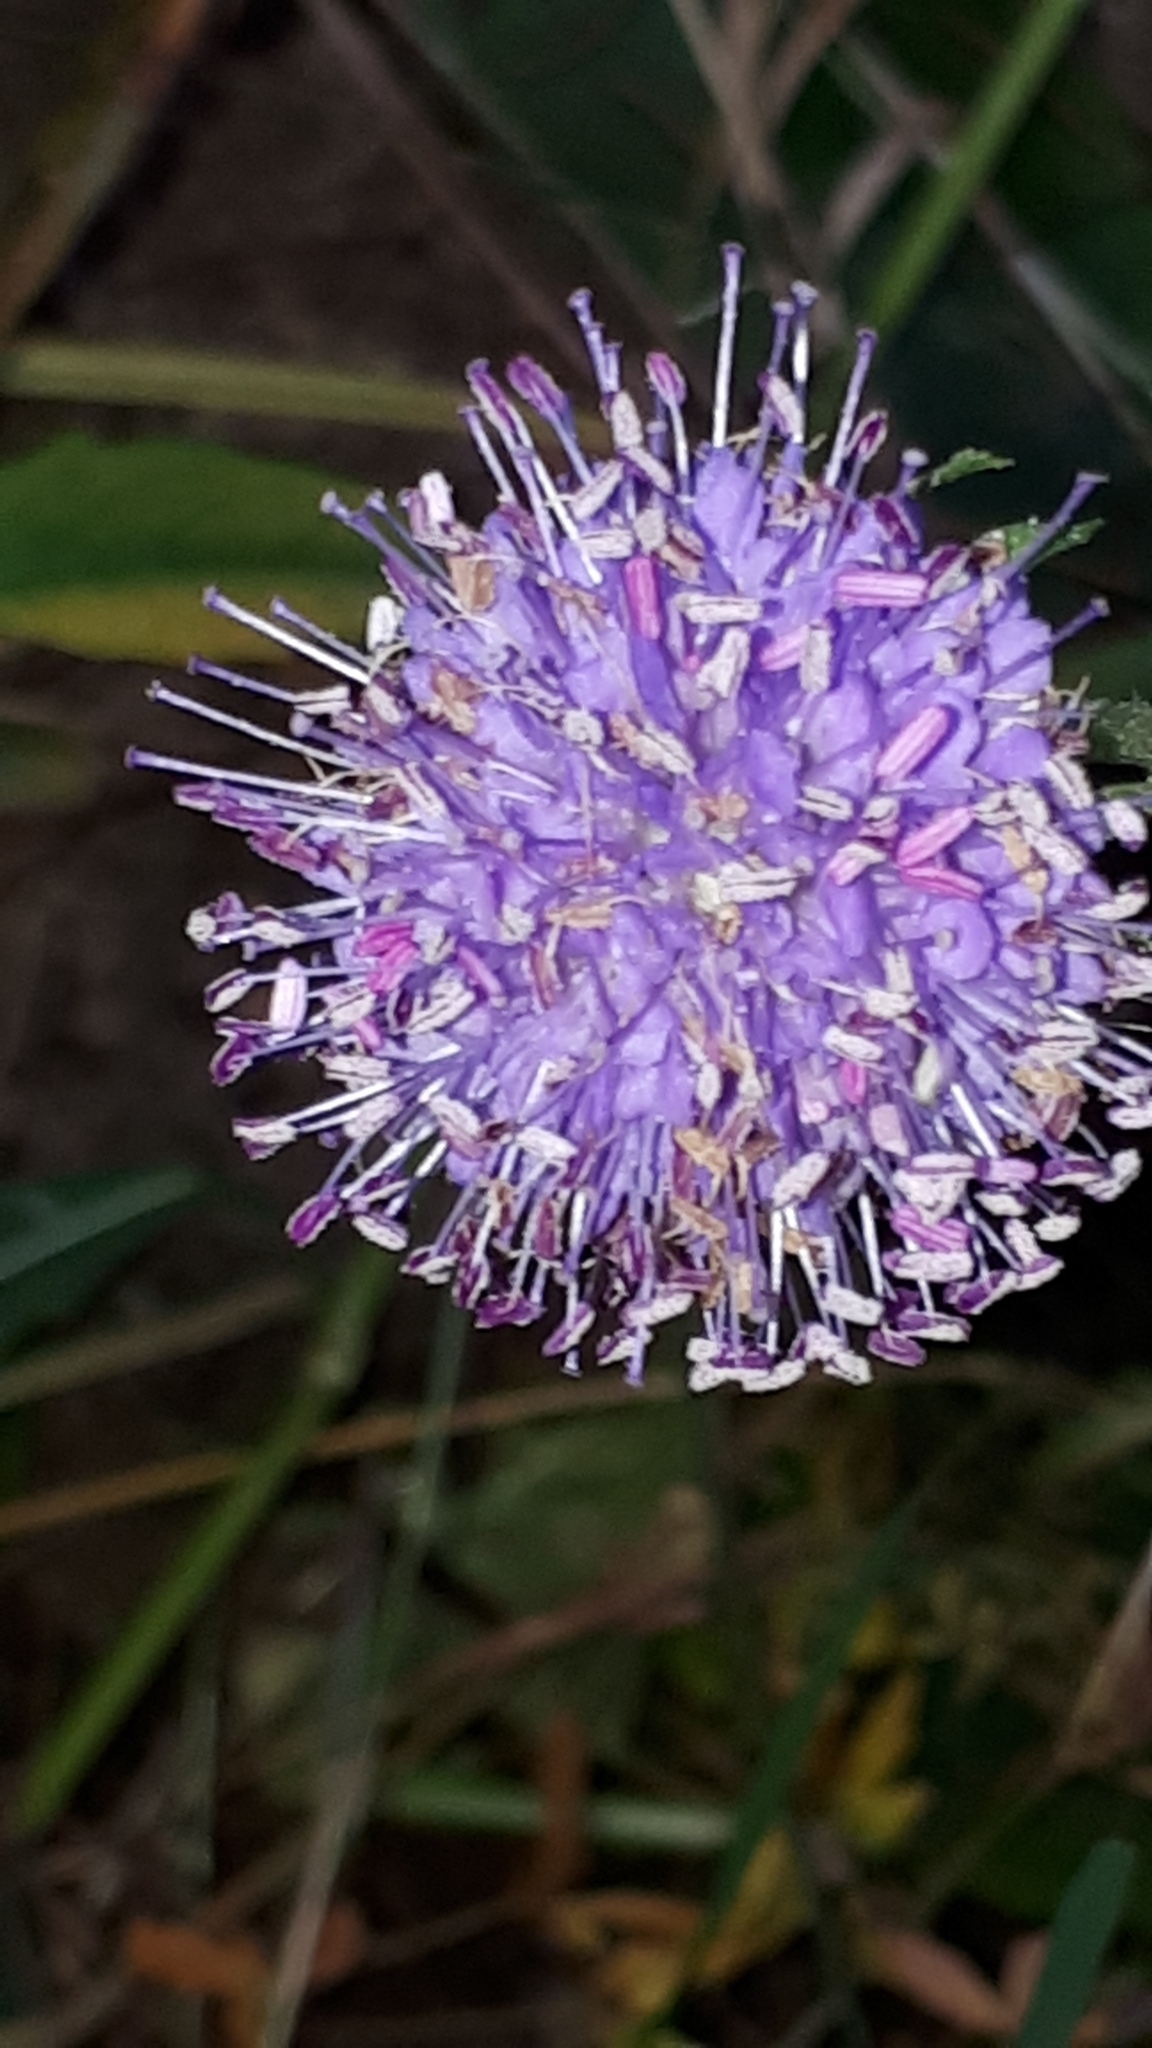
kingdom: Plantae
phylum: Tracheophyta
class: Magnoliopsida
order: Dipsacales
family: Caprifoliaceae
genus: Succisa
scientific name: Succisa pratensis
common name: Devil's-bit
